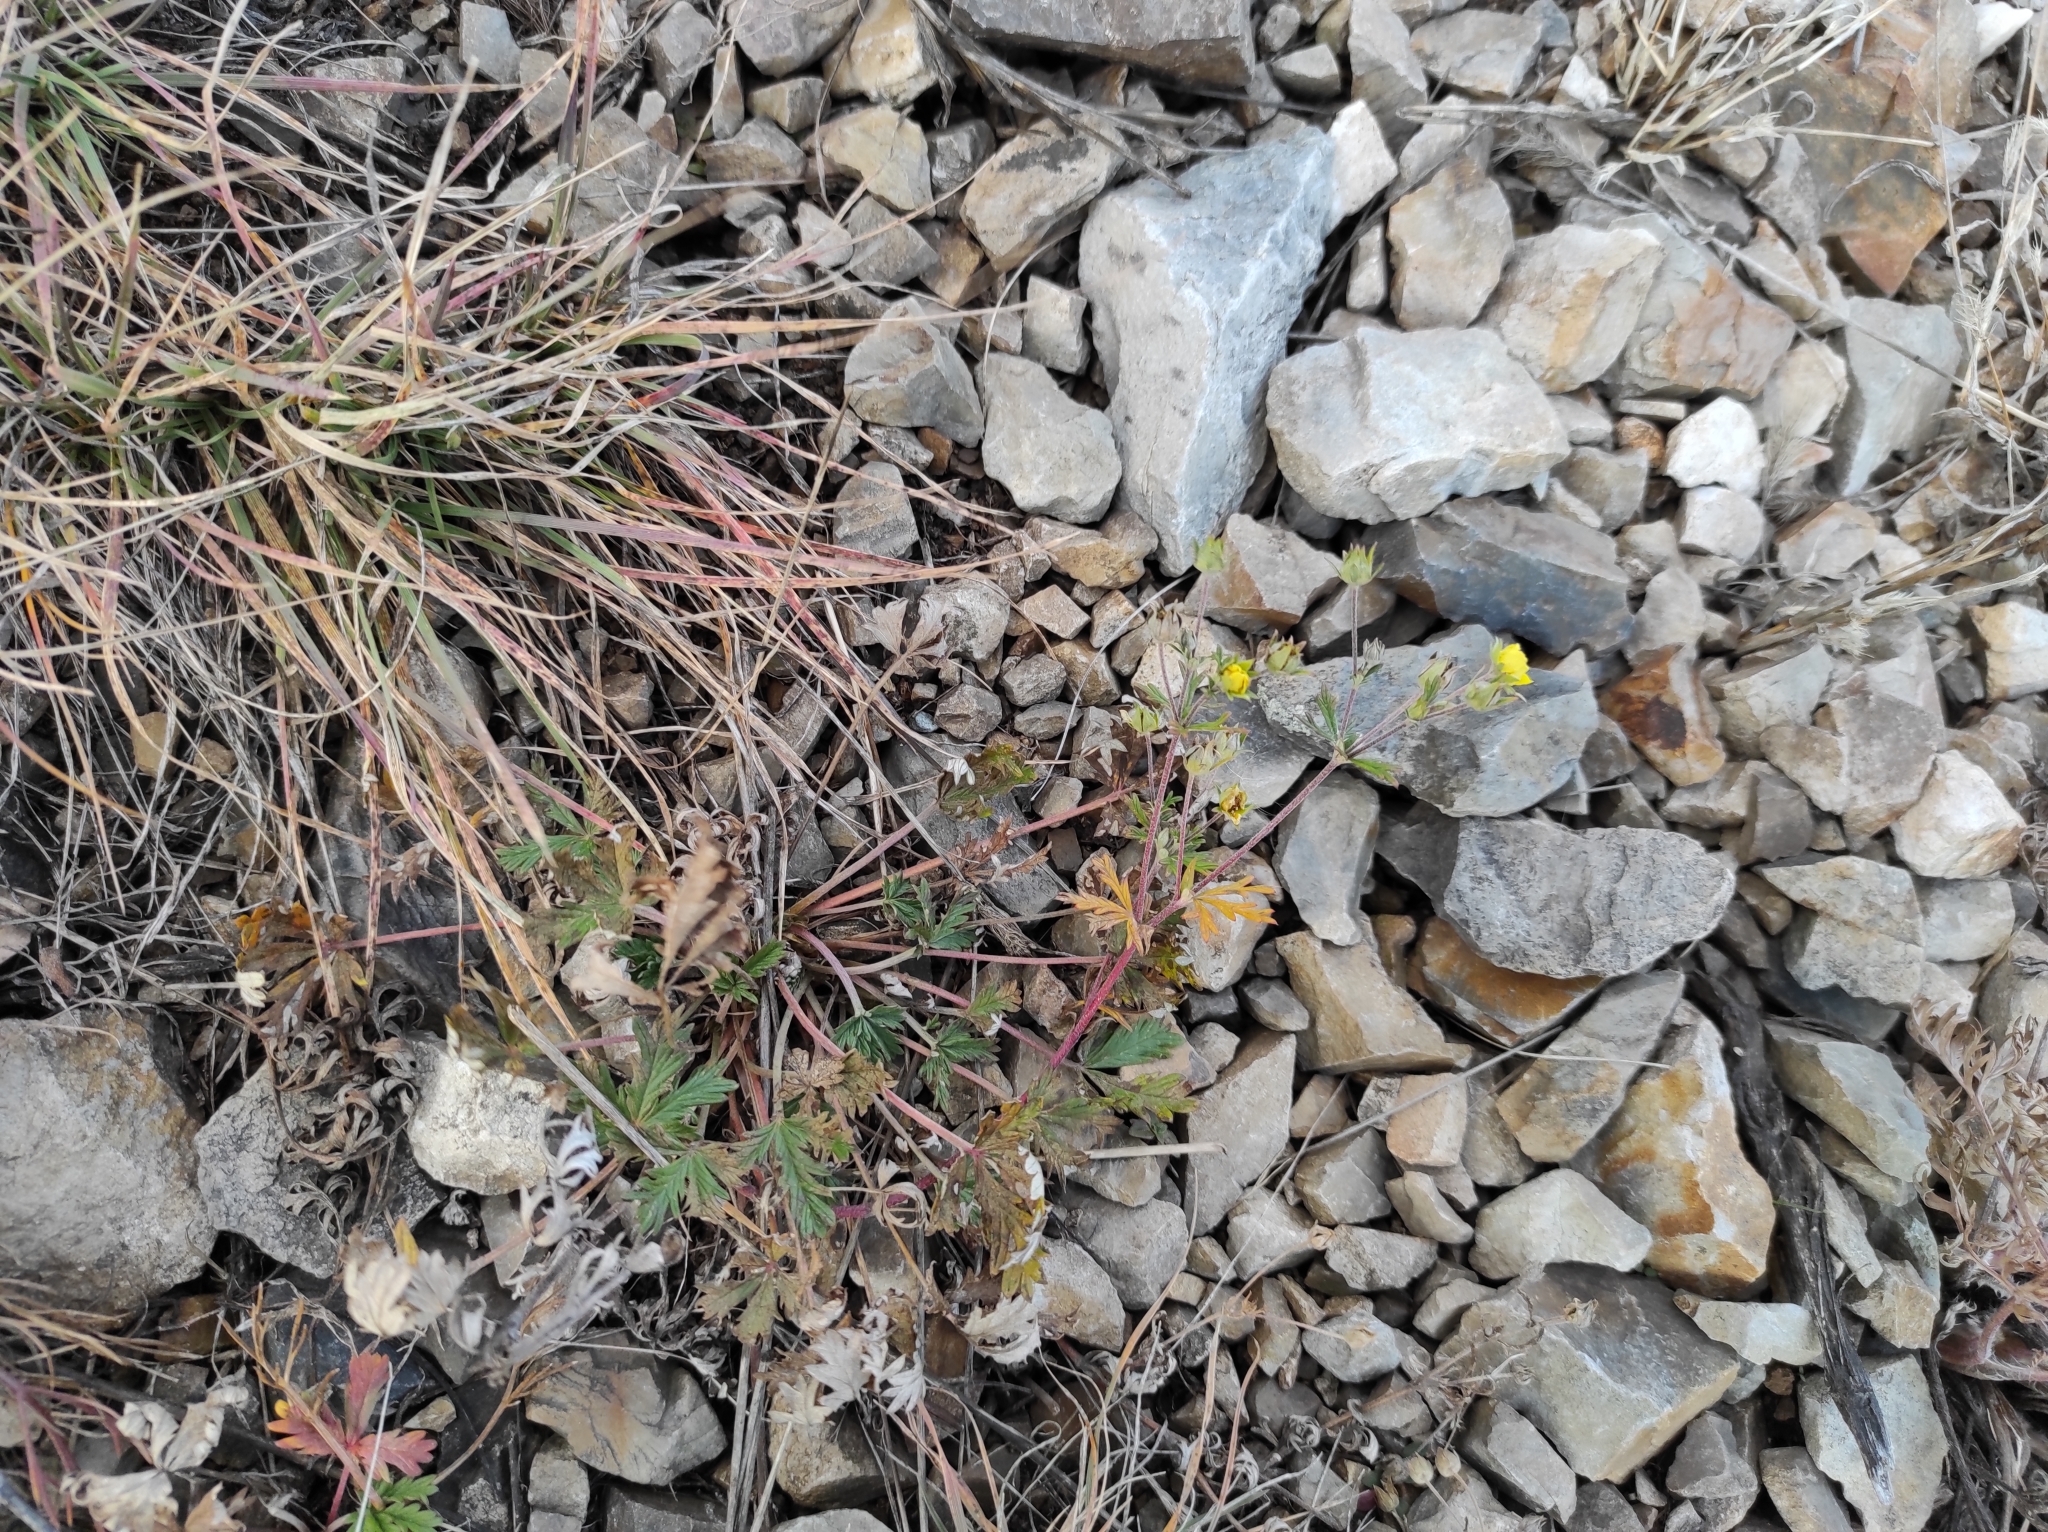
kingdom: Plantae
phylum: Tracheophyta
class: Magnoliopsida
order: Rosales
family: Rosaceae
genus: Potentilla
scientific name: Potentilla argentea
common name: Hoary cinquefoil
